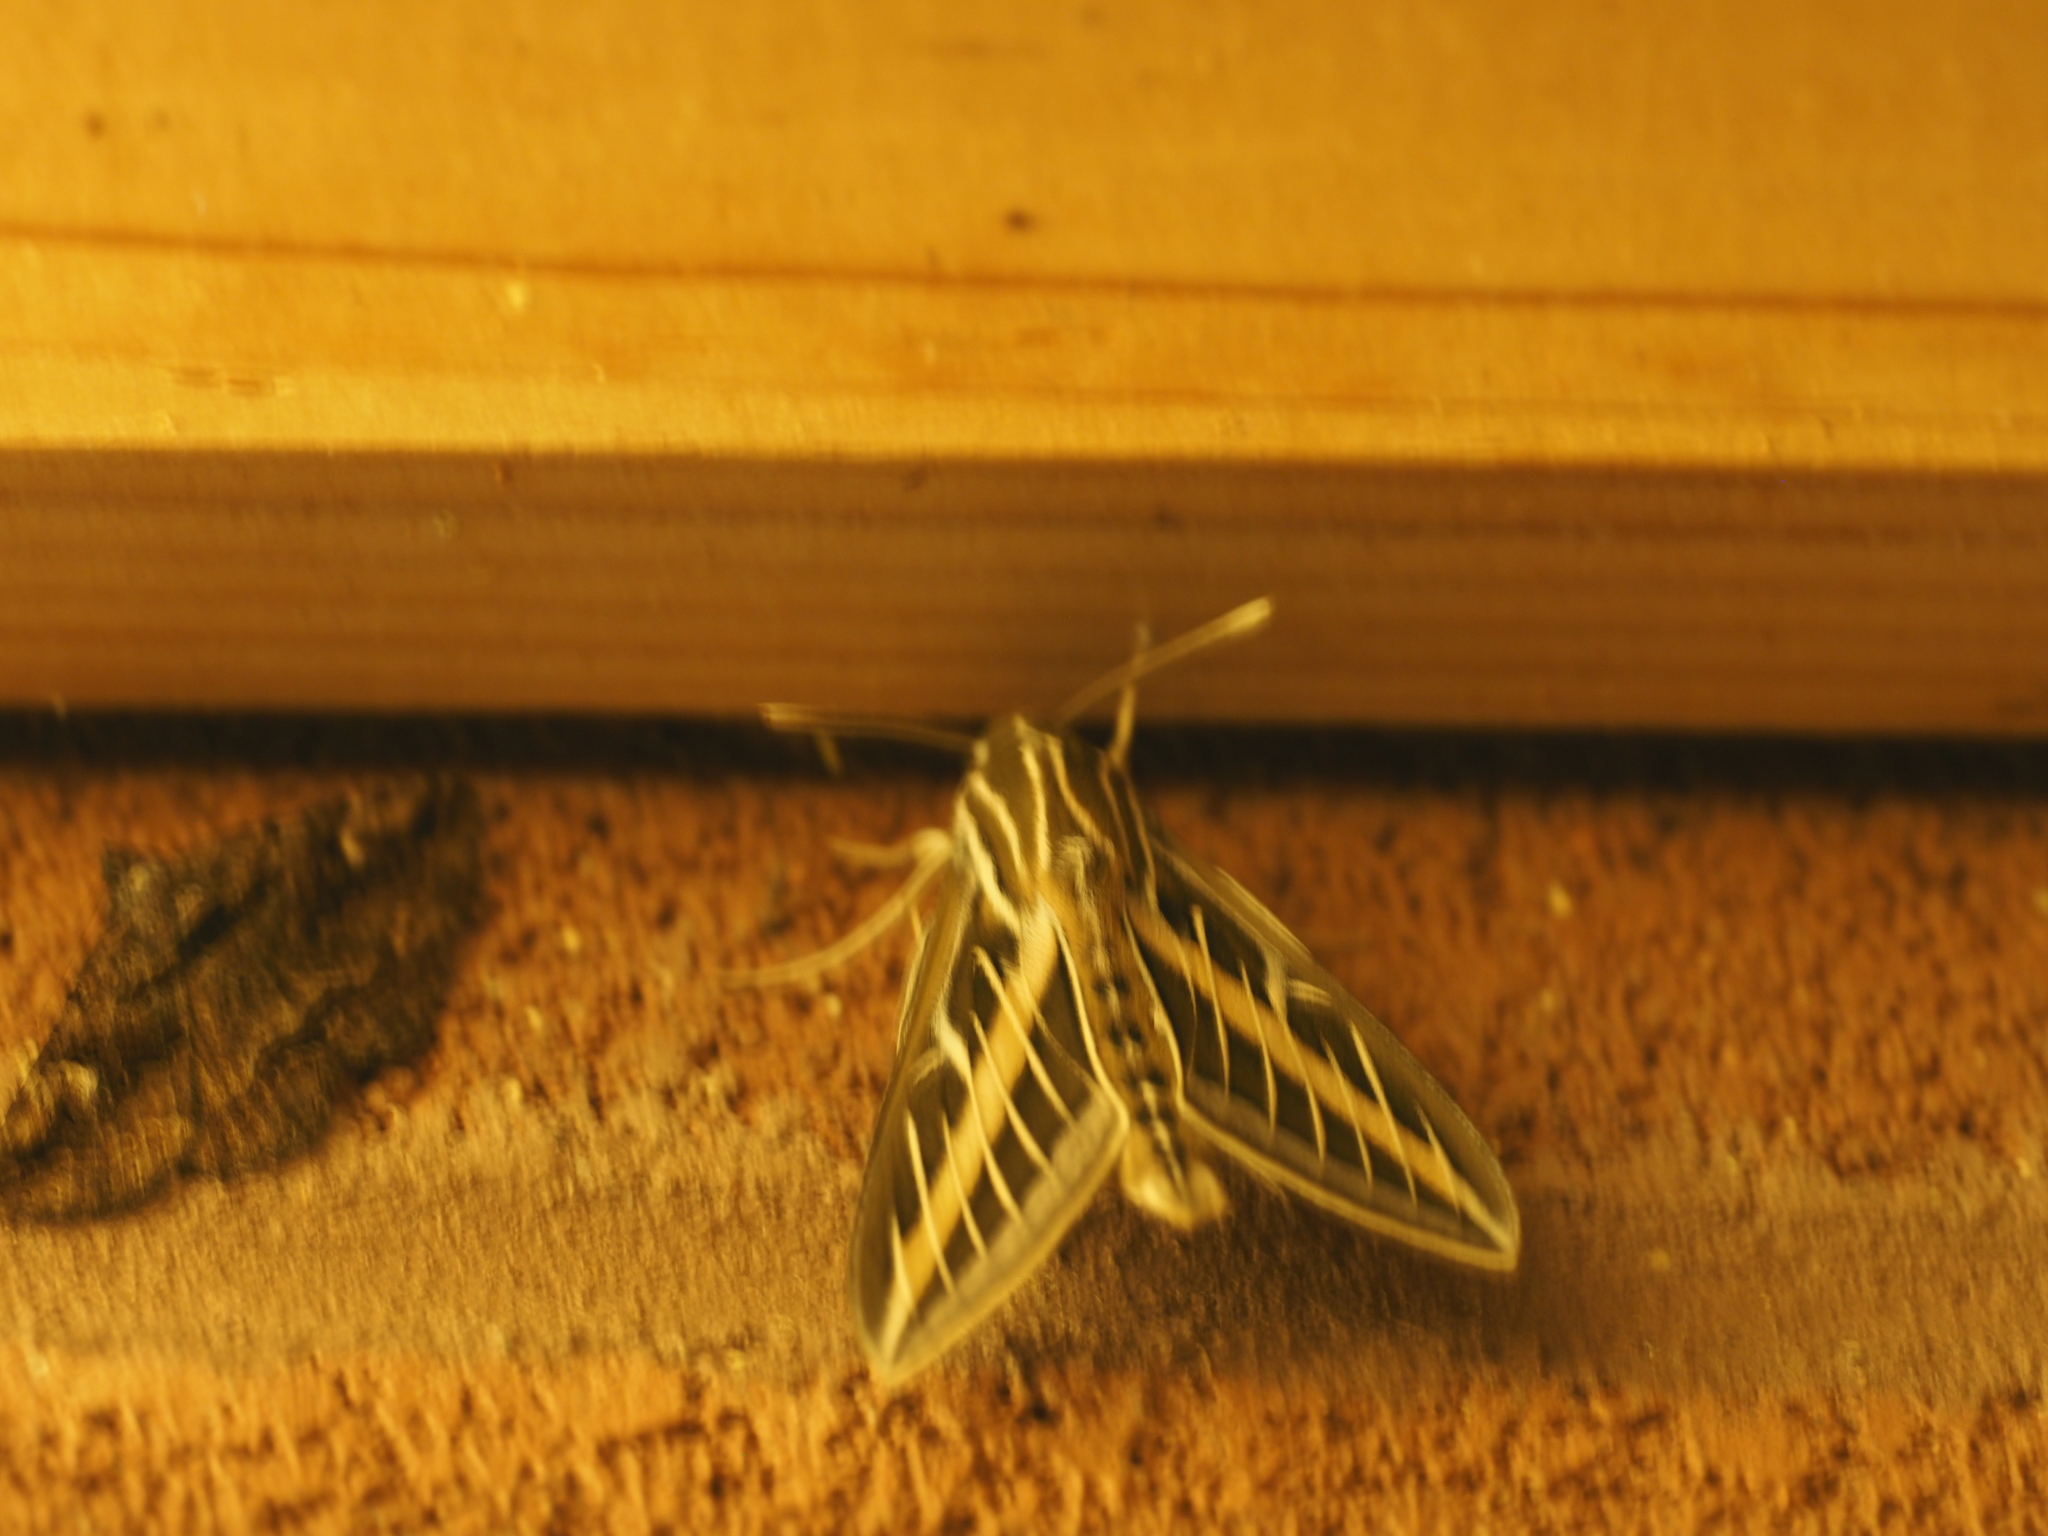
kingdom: Animalia
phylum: Arthropoda
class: Insecta
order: Lepidoptera
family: Sphingidae
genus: Hyles
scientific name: Hyles lineata
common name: White-lined sphinx
